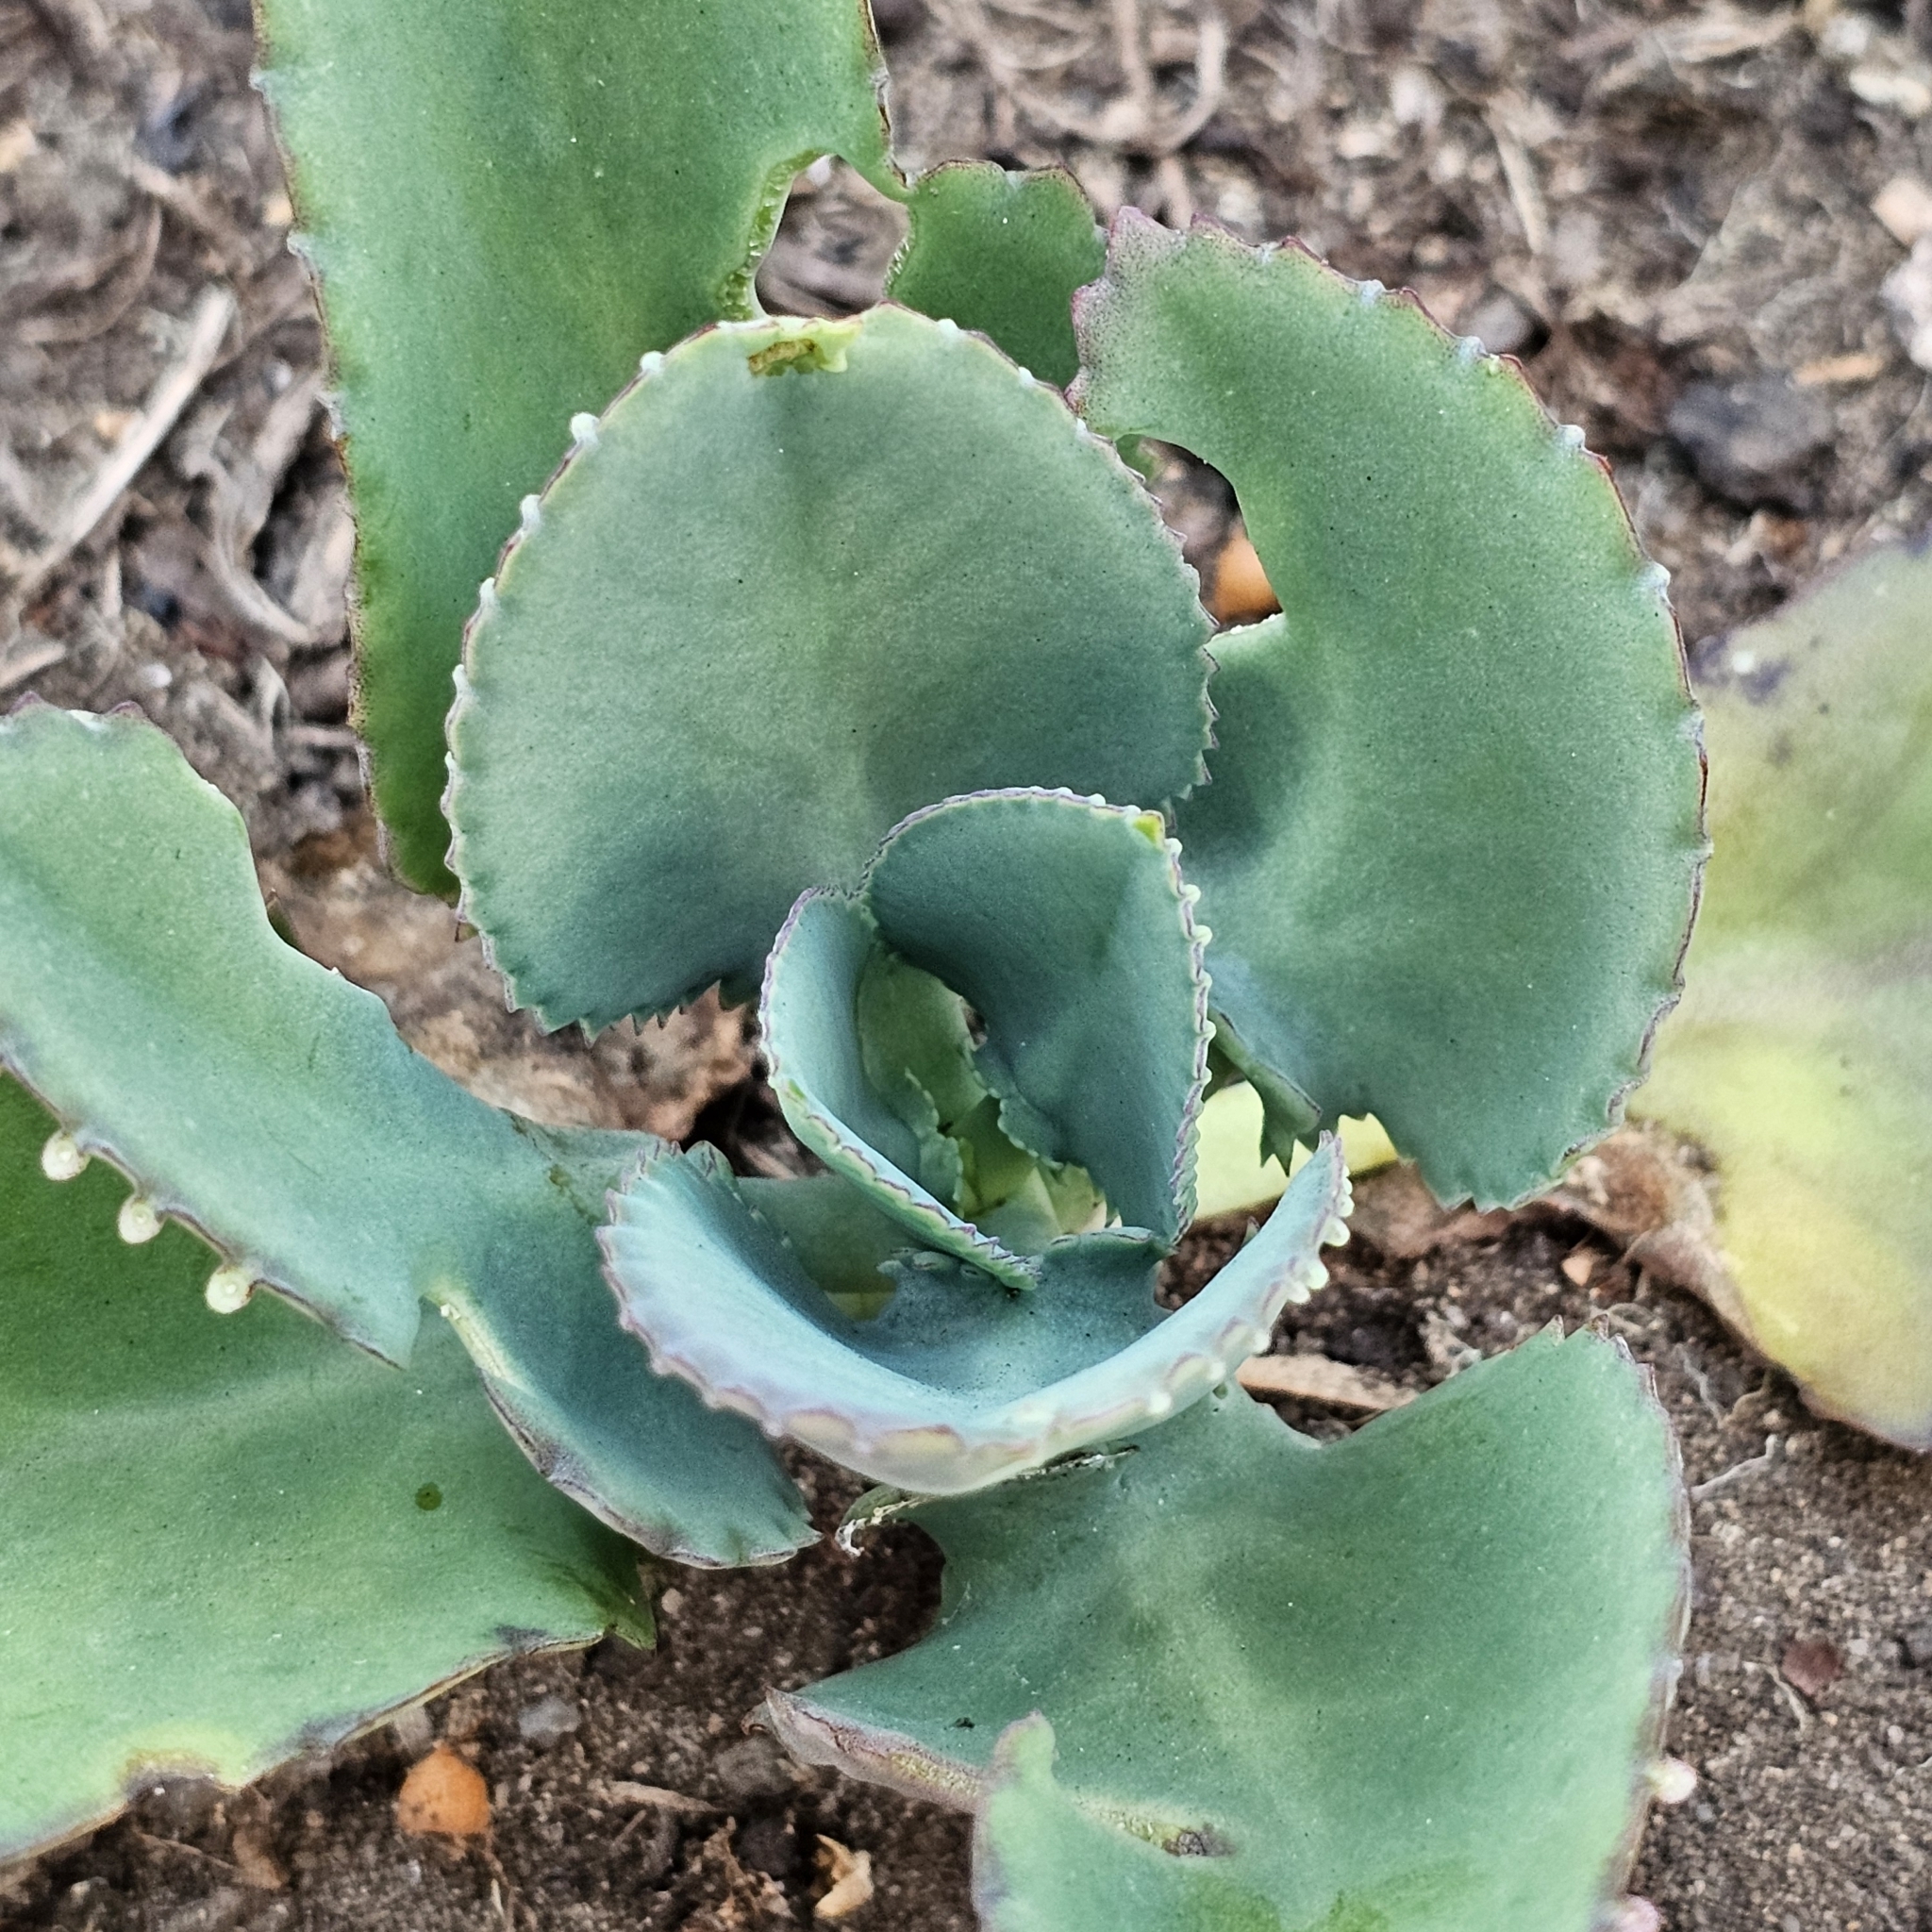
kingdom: Plantae
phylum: Tracheophyta
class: Magnoliopsida
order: Saxifragales
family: Crassulaceae
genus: Kalanchoe
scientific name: Kalanchoe laetivirens
